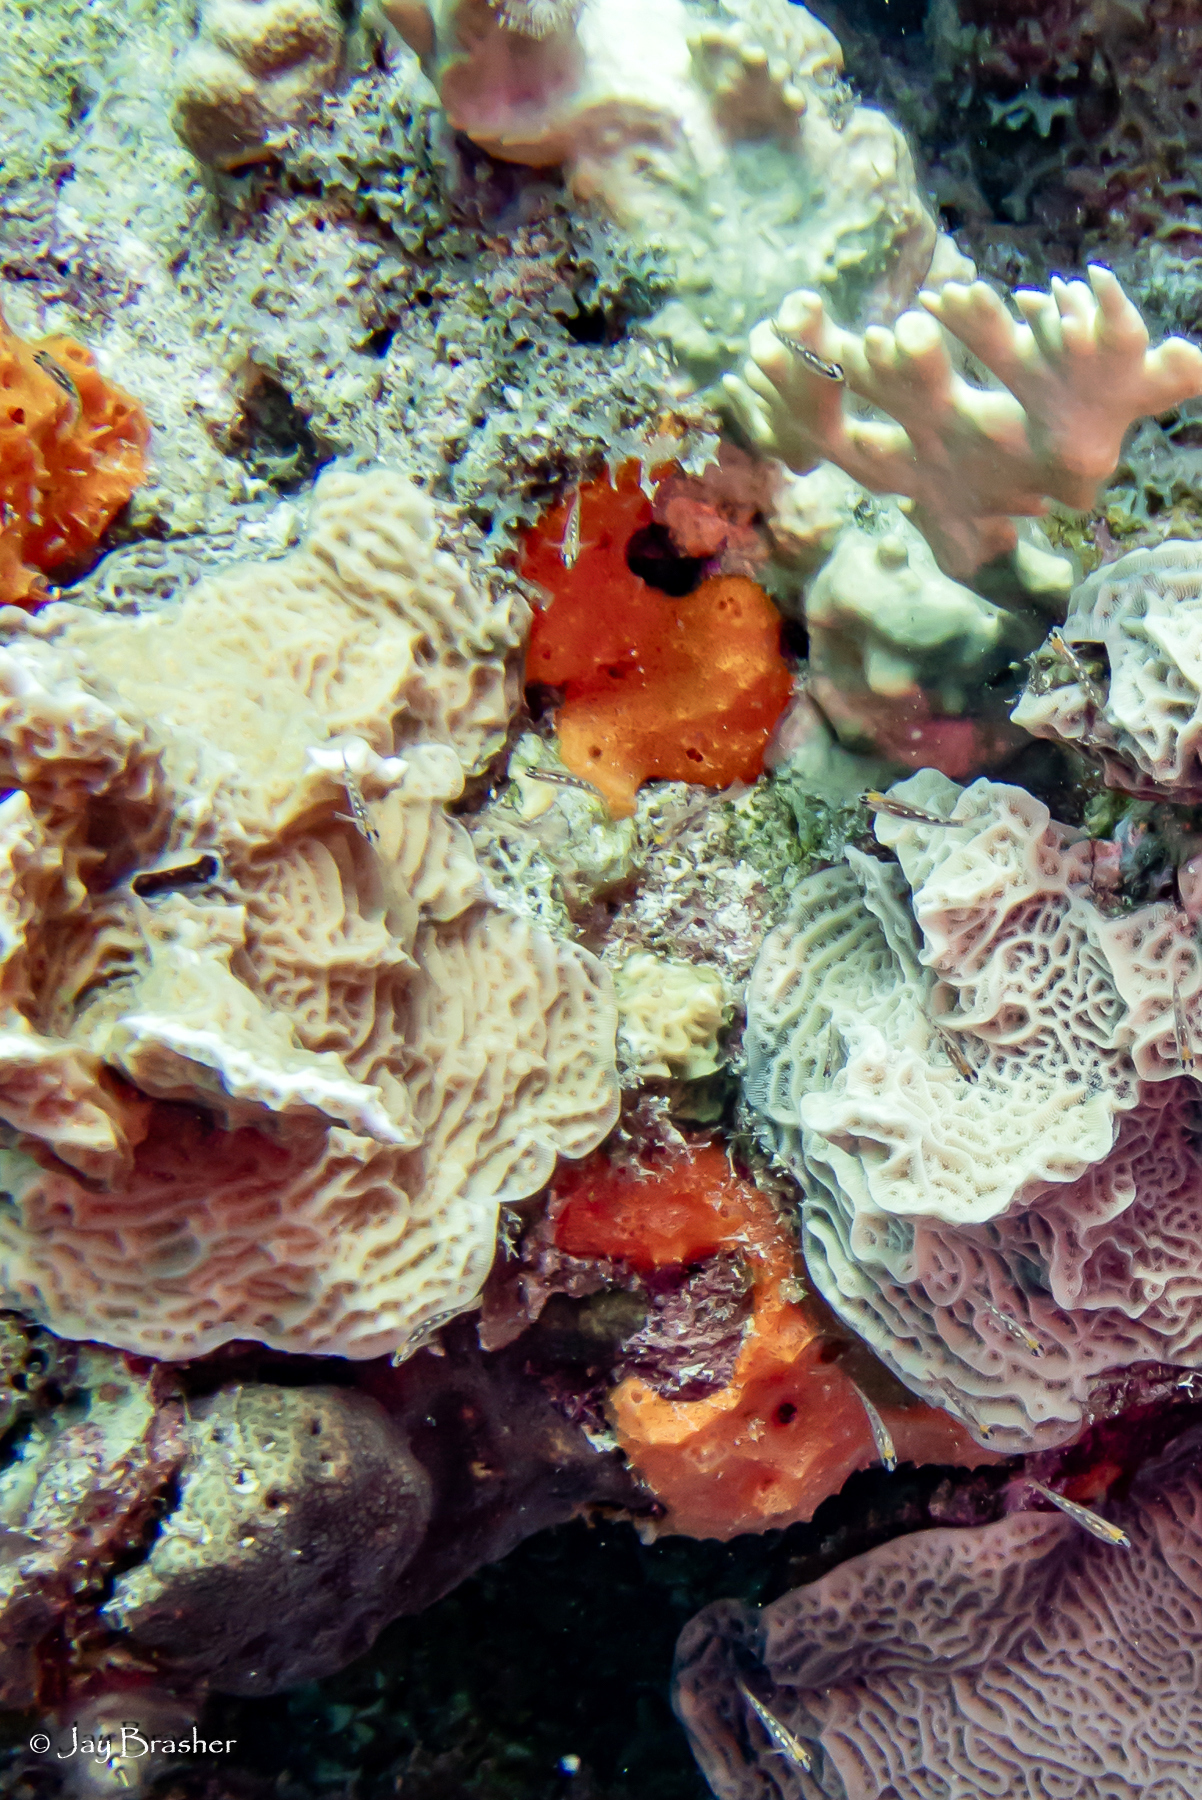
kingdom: Animalia
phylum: Cnidaria
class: Hydrozoa
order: Anthoathecata
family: Milleporidae
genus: Millepora
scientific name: Millepora alcicornis
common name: Branching fire coral
